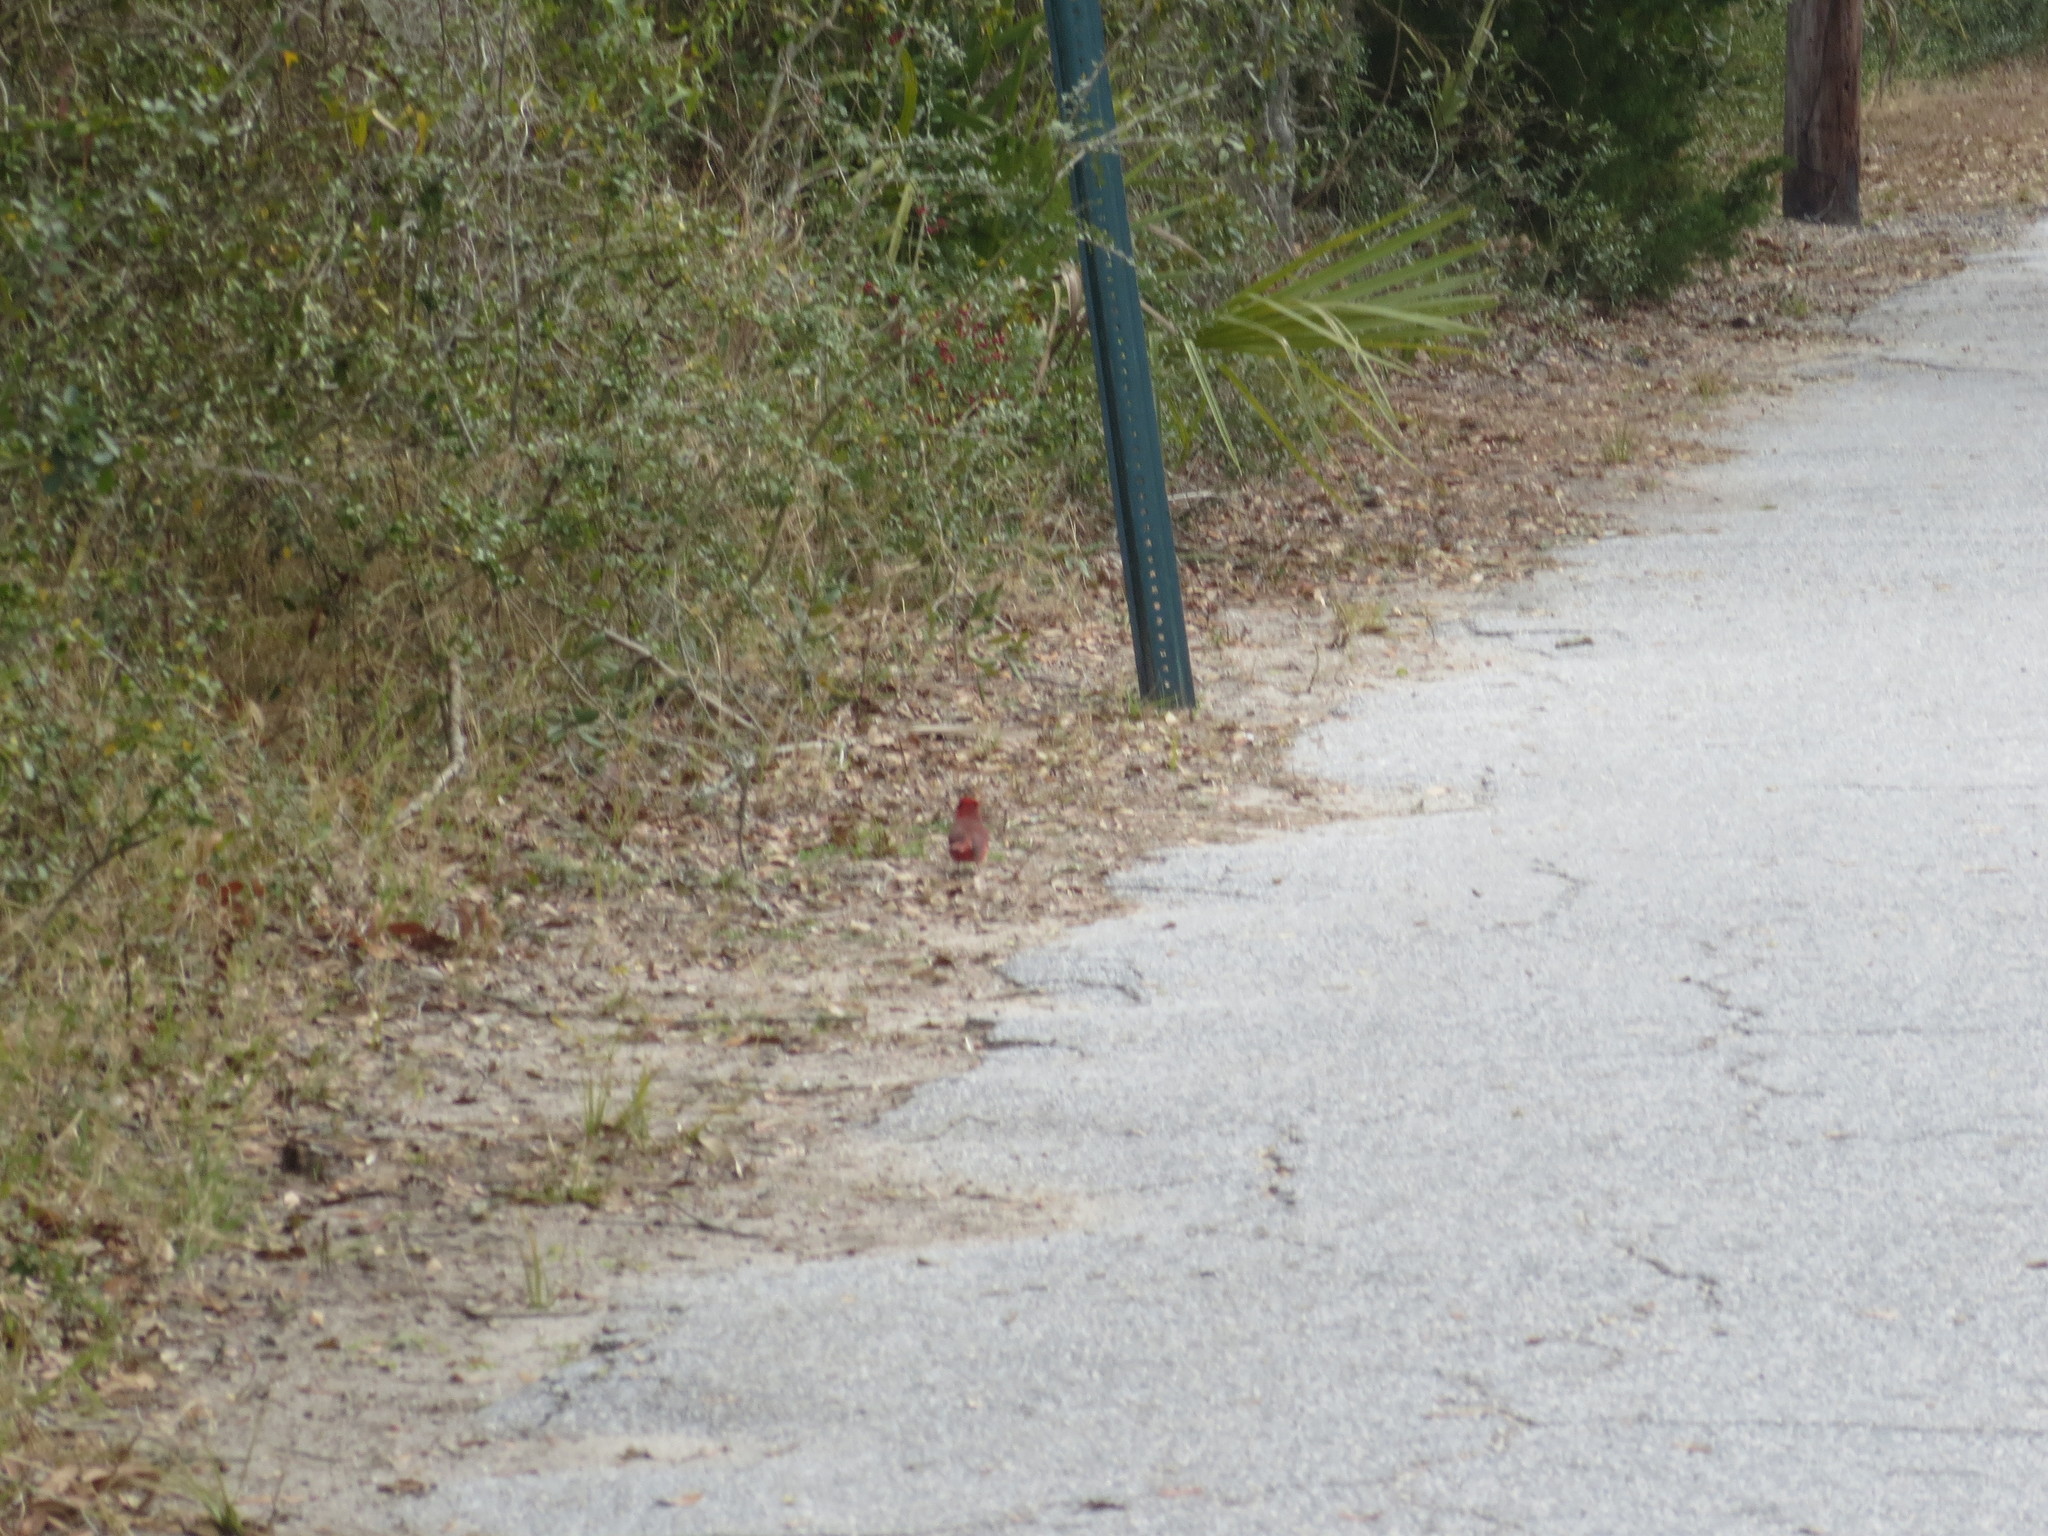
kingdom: Animalia
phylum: Chordata
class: Aves
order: Passeriformes
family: Cardinalidae
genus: Cardinalis
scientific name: Cardinalis cardinalis
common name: Northern cardinal
